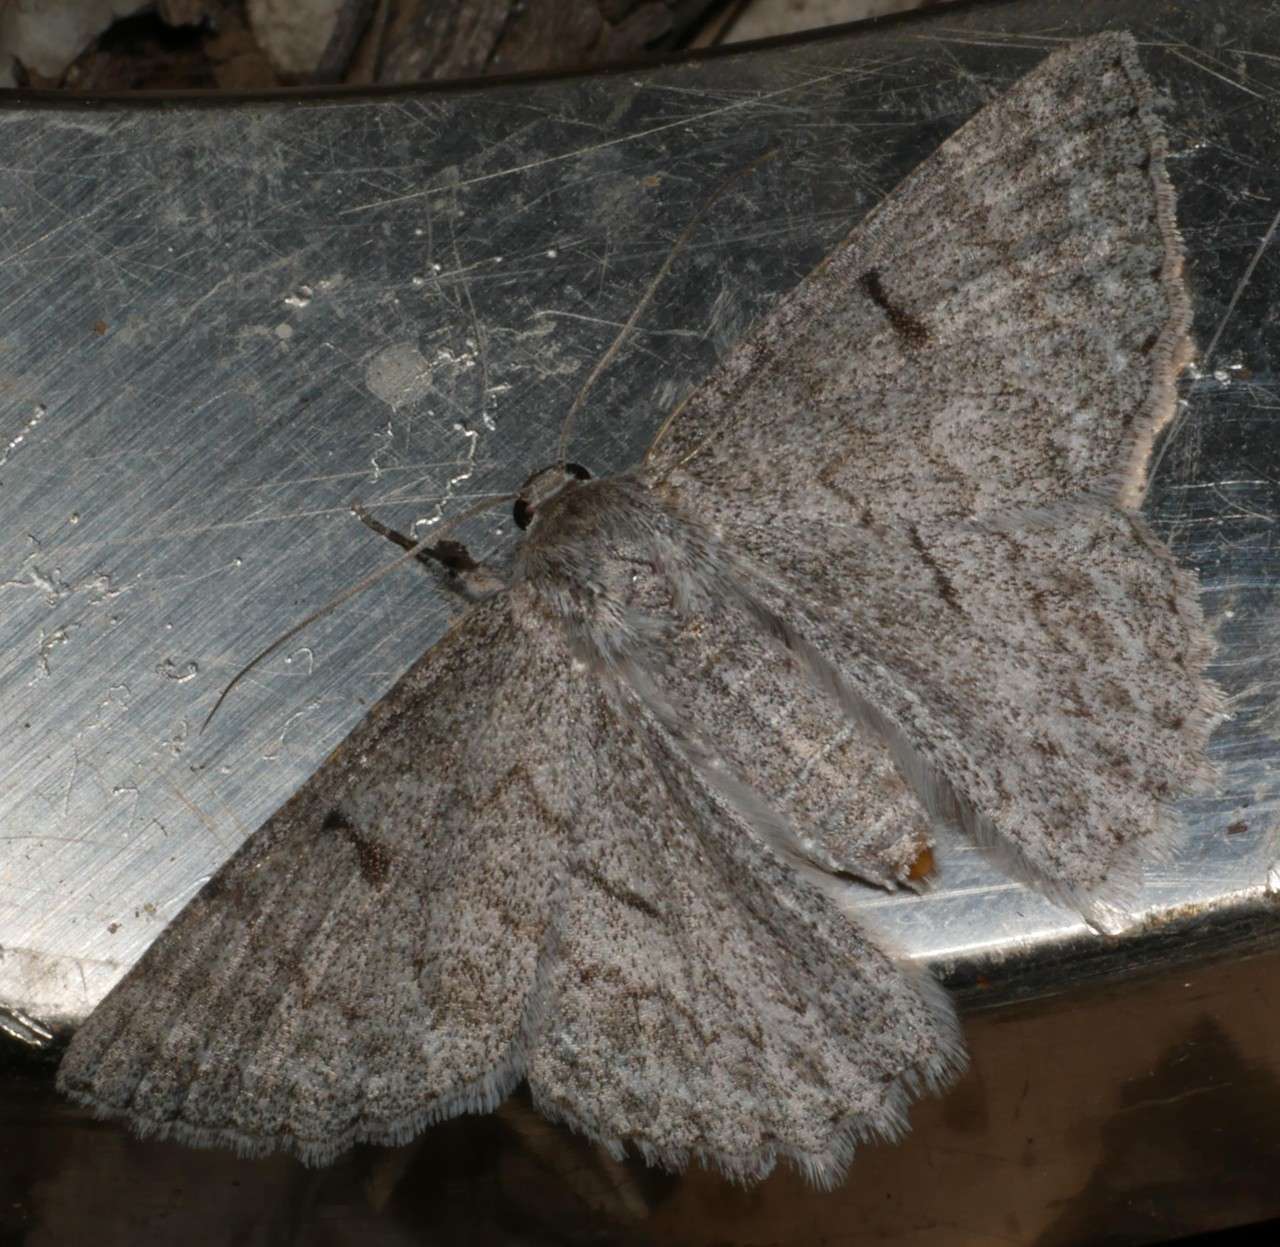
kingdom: Animalia
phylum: Arthropoda
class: Insecta
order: Lepidoptera
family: Geometridae
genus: Crypsiphona
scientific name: Crypsiphona ocultaria
